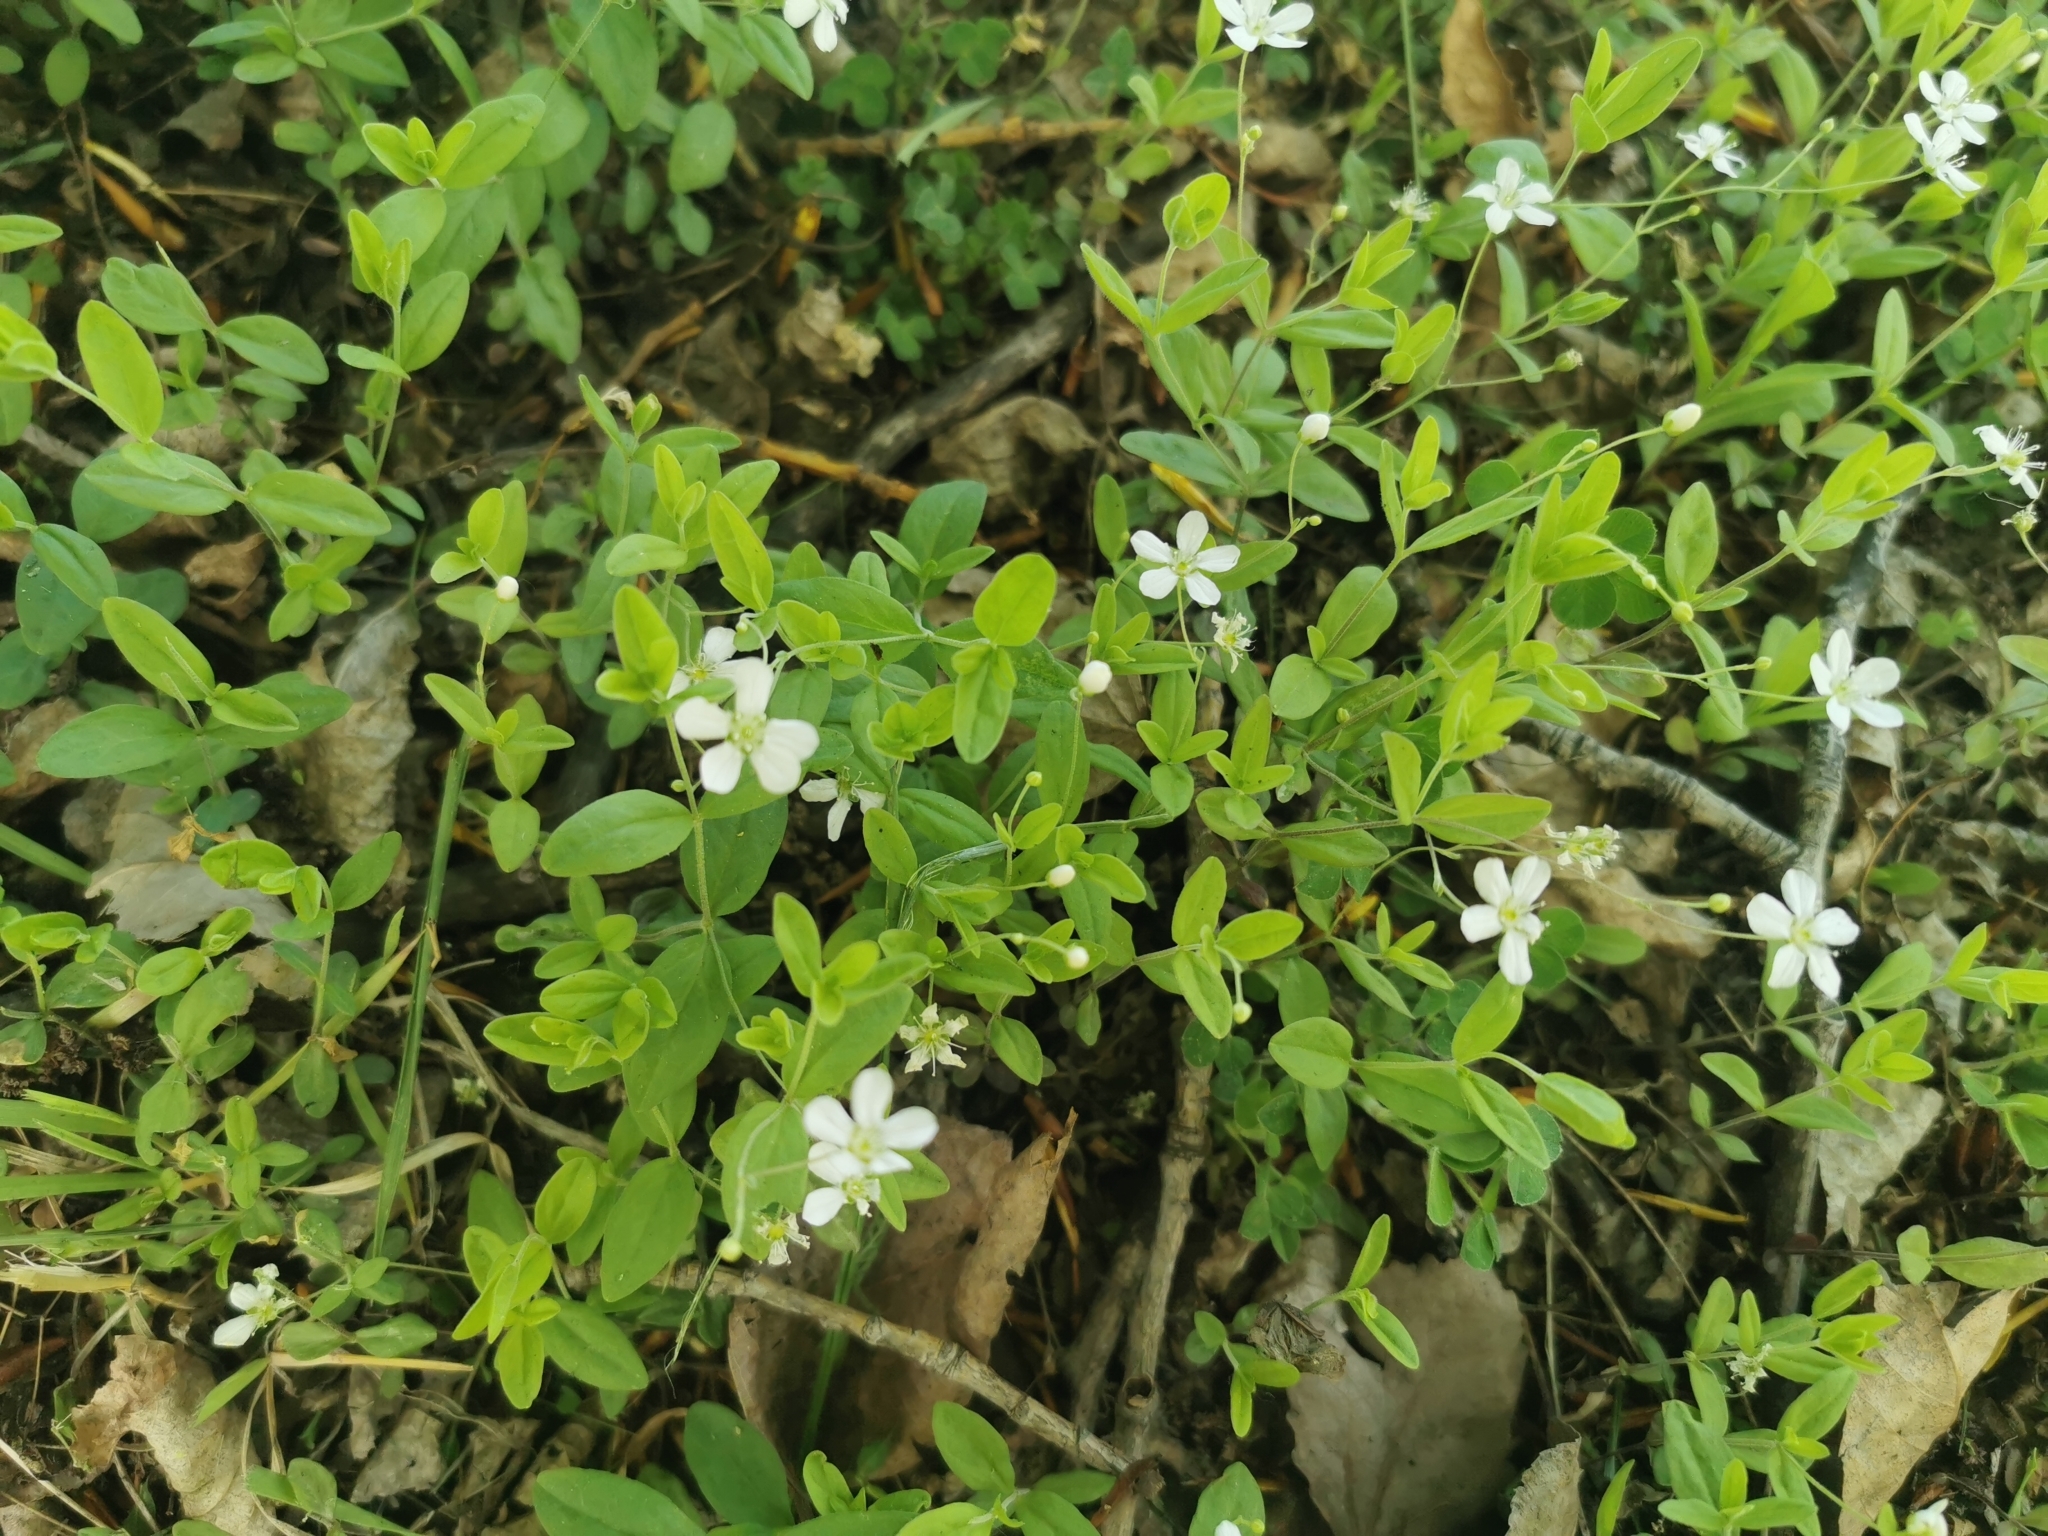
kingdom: Plantae
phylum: Tracheophyta
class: Magnoliopsida
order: Caryophyllales
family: Caryophyllaceae
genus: Moehringia
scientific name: Moehringia lateriflora
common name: Blunt-leaved sandwort
